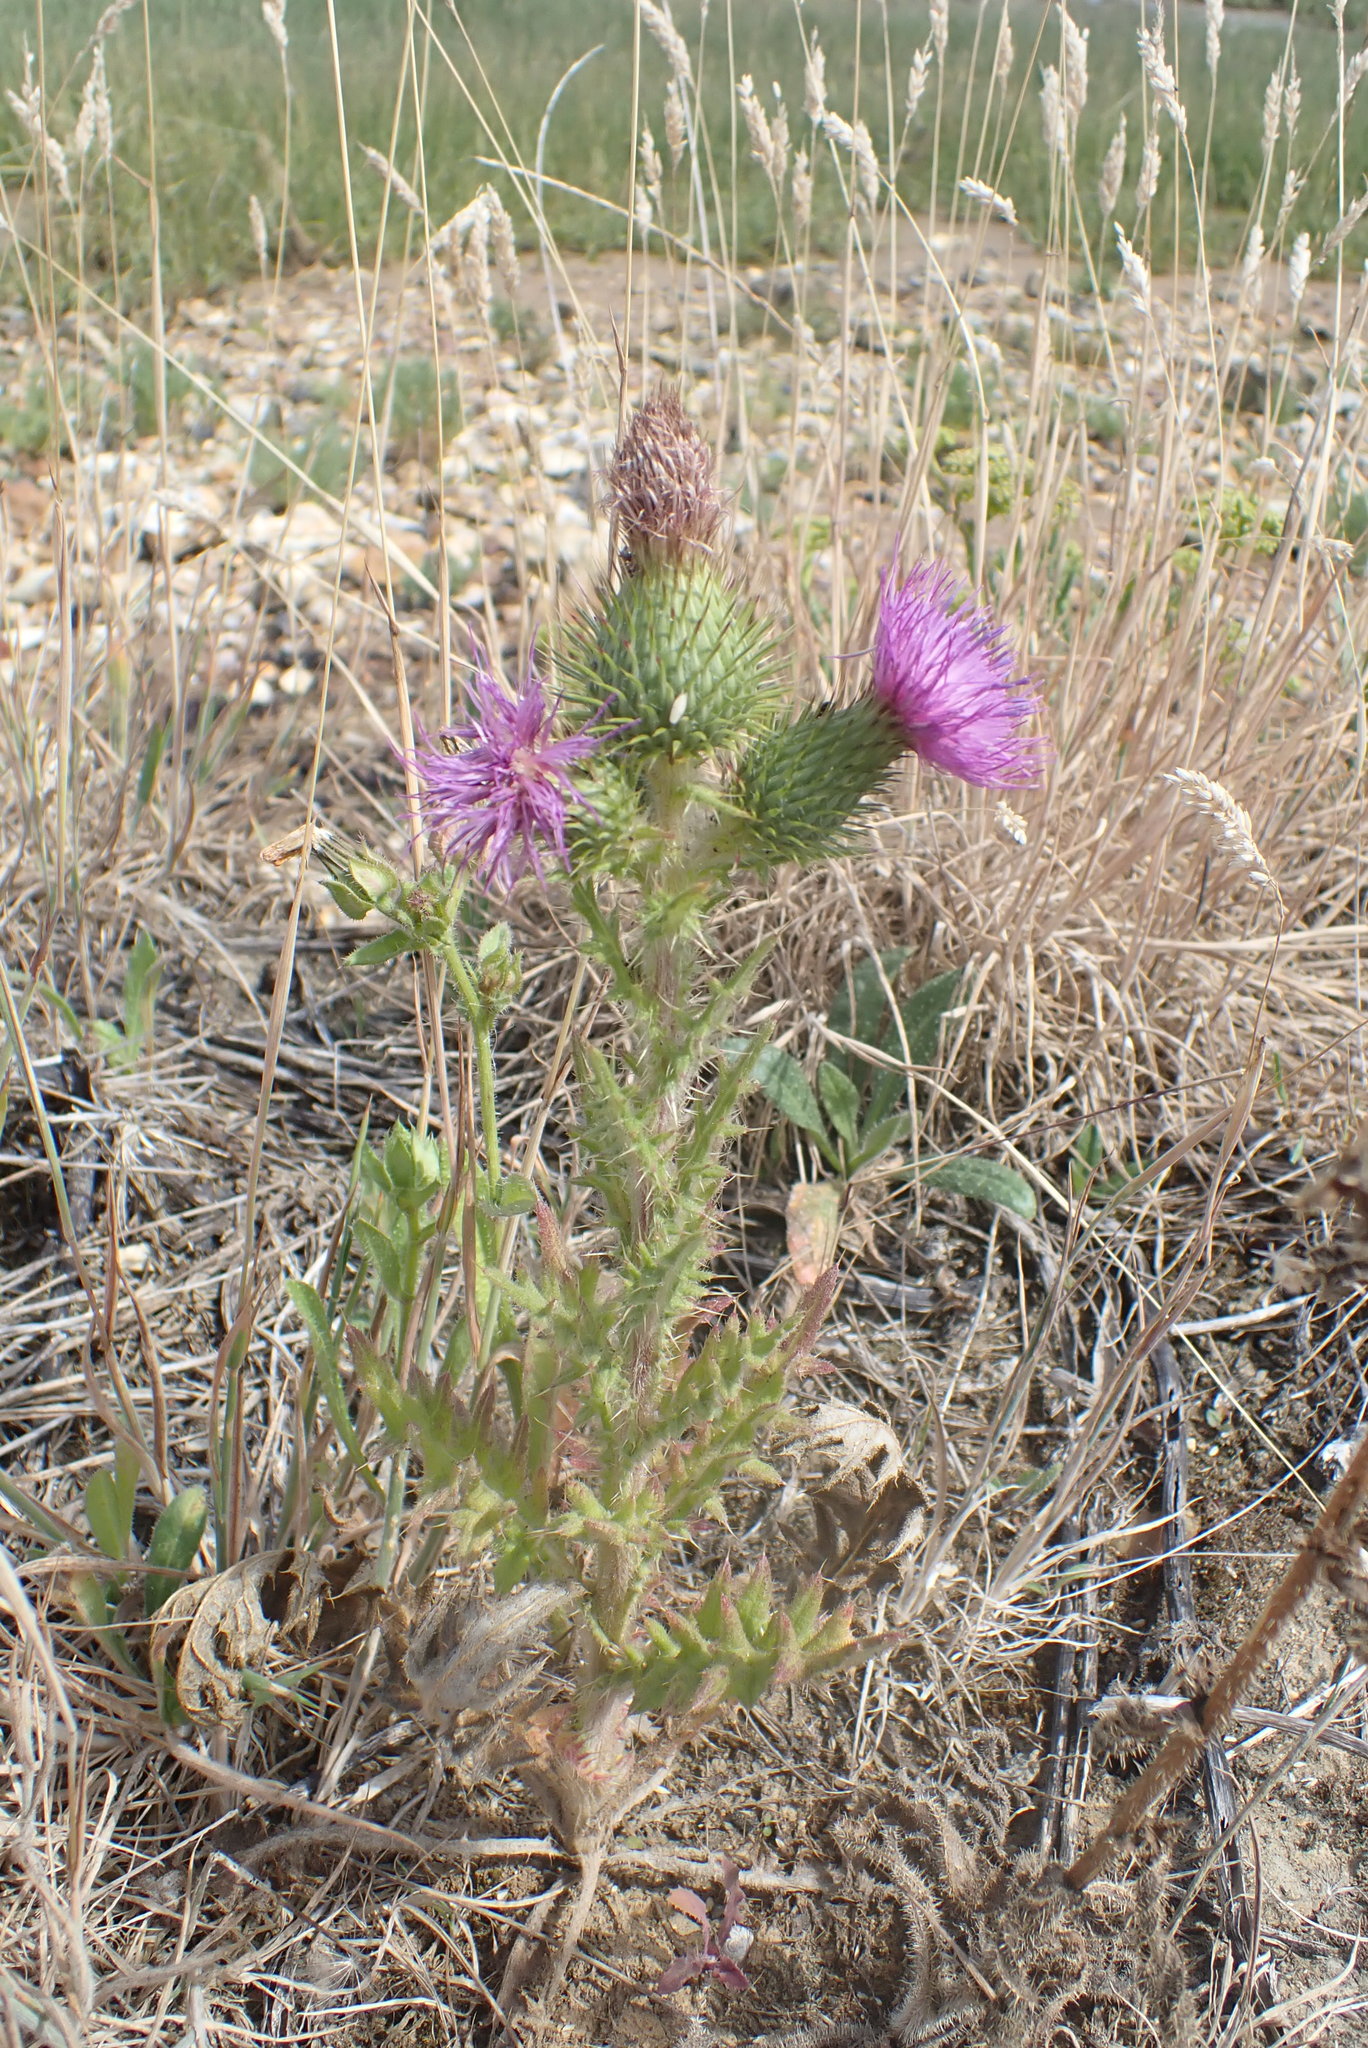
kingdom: Plantae
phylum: Tracheophyta
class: Magnoliopsida
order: Asterales
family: Asteraceae
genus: Cirsium
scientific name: Cirsium vulgare
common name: Bull thistle
